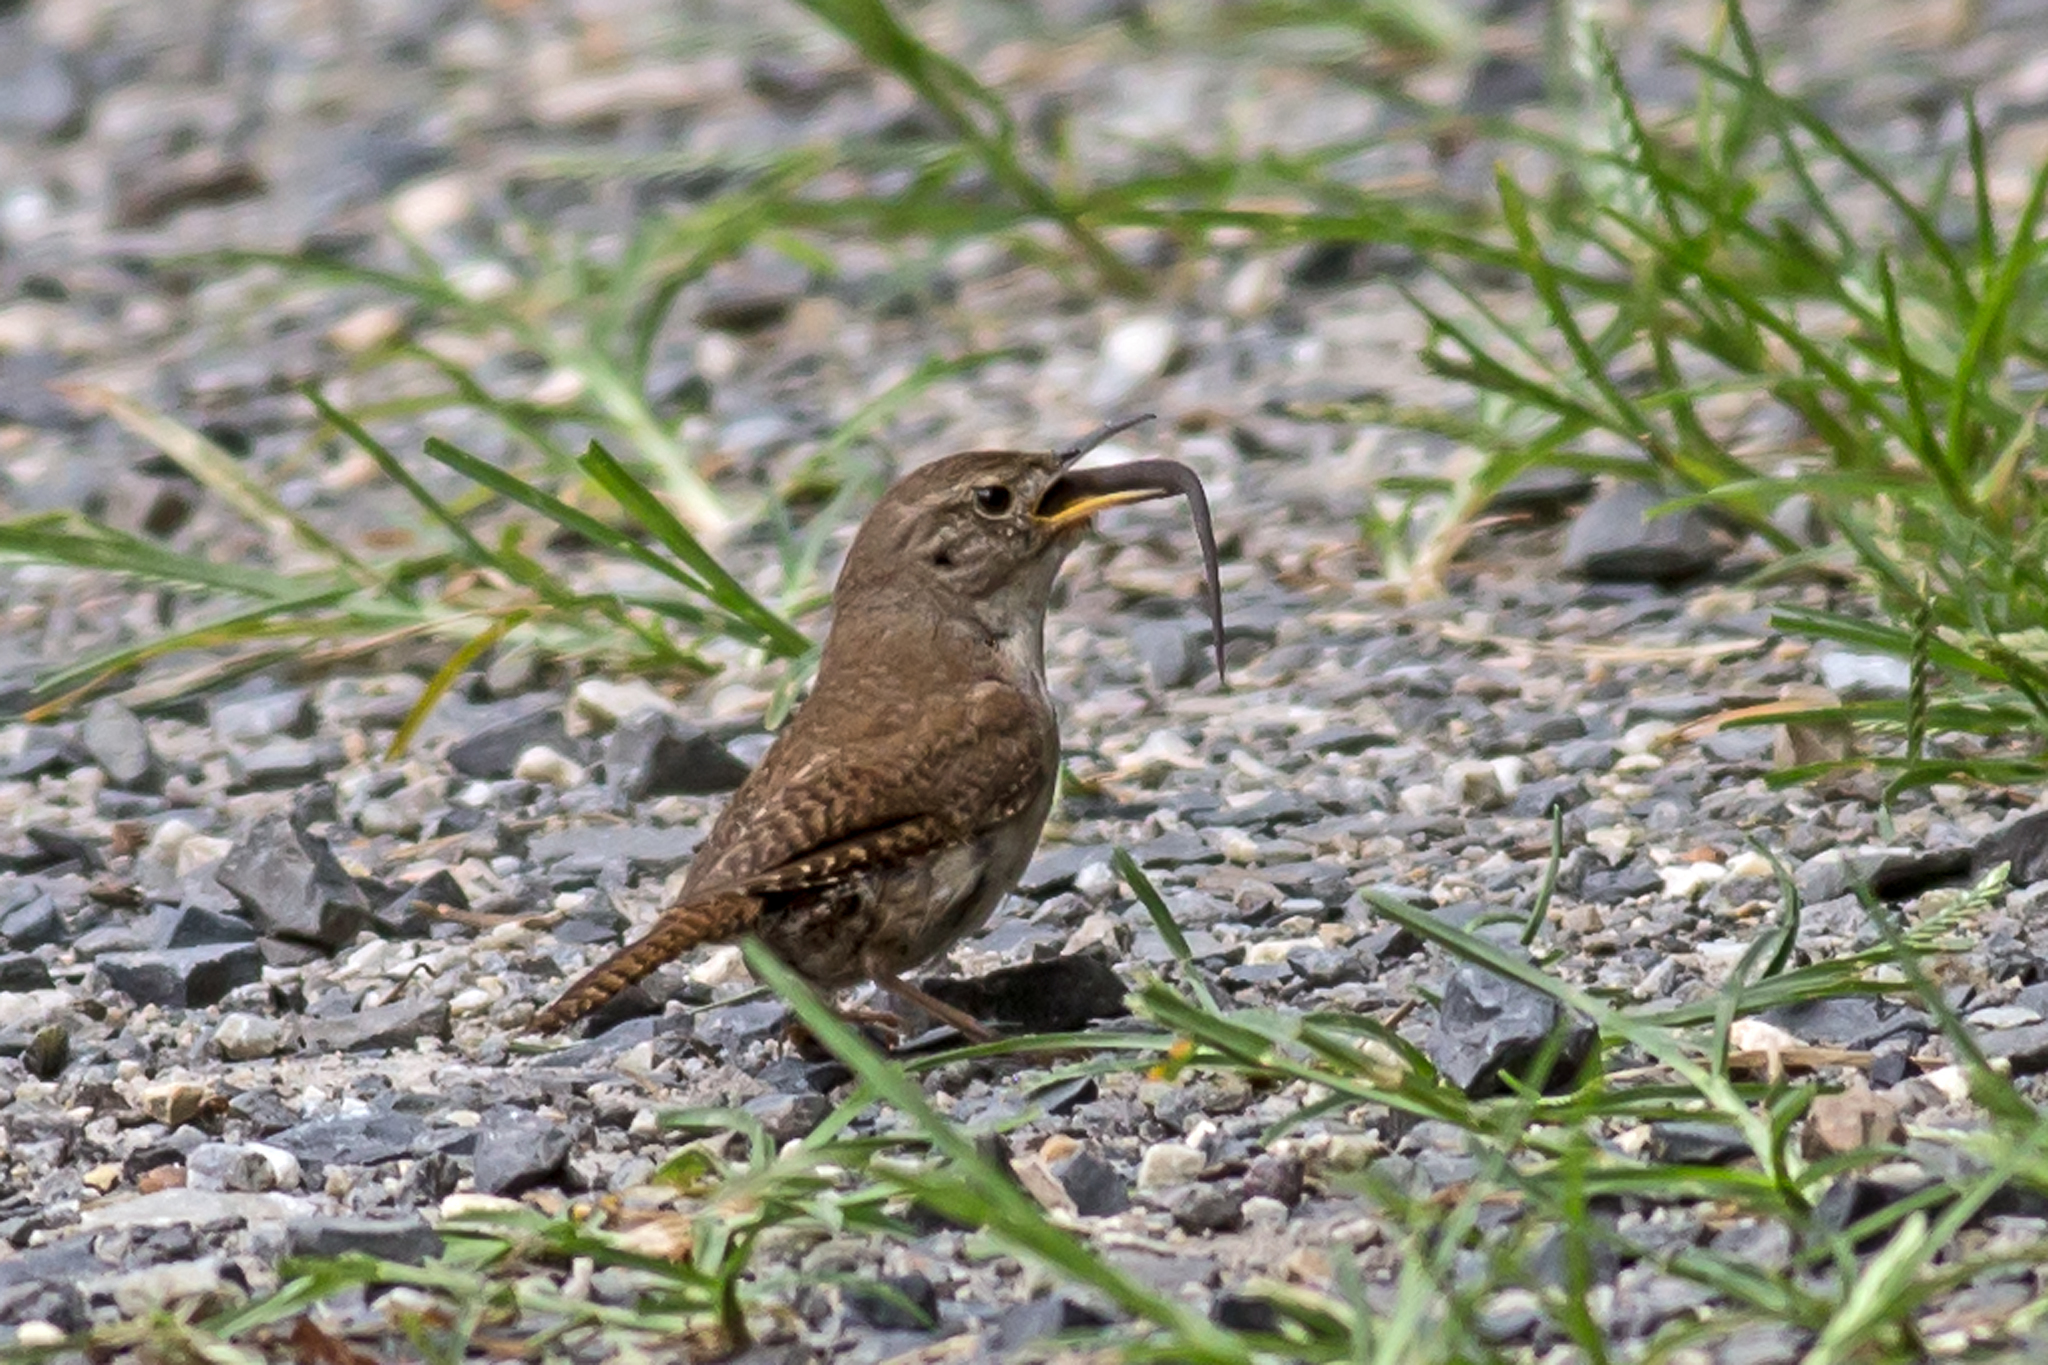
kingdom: Animalia
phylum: Chordata
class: Aves
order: Passeriformes
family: Troglodytidae
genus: Troglodytes
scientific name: Troglodytes aedon
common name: House wren
